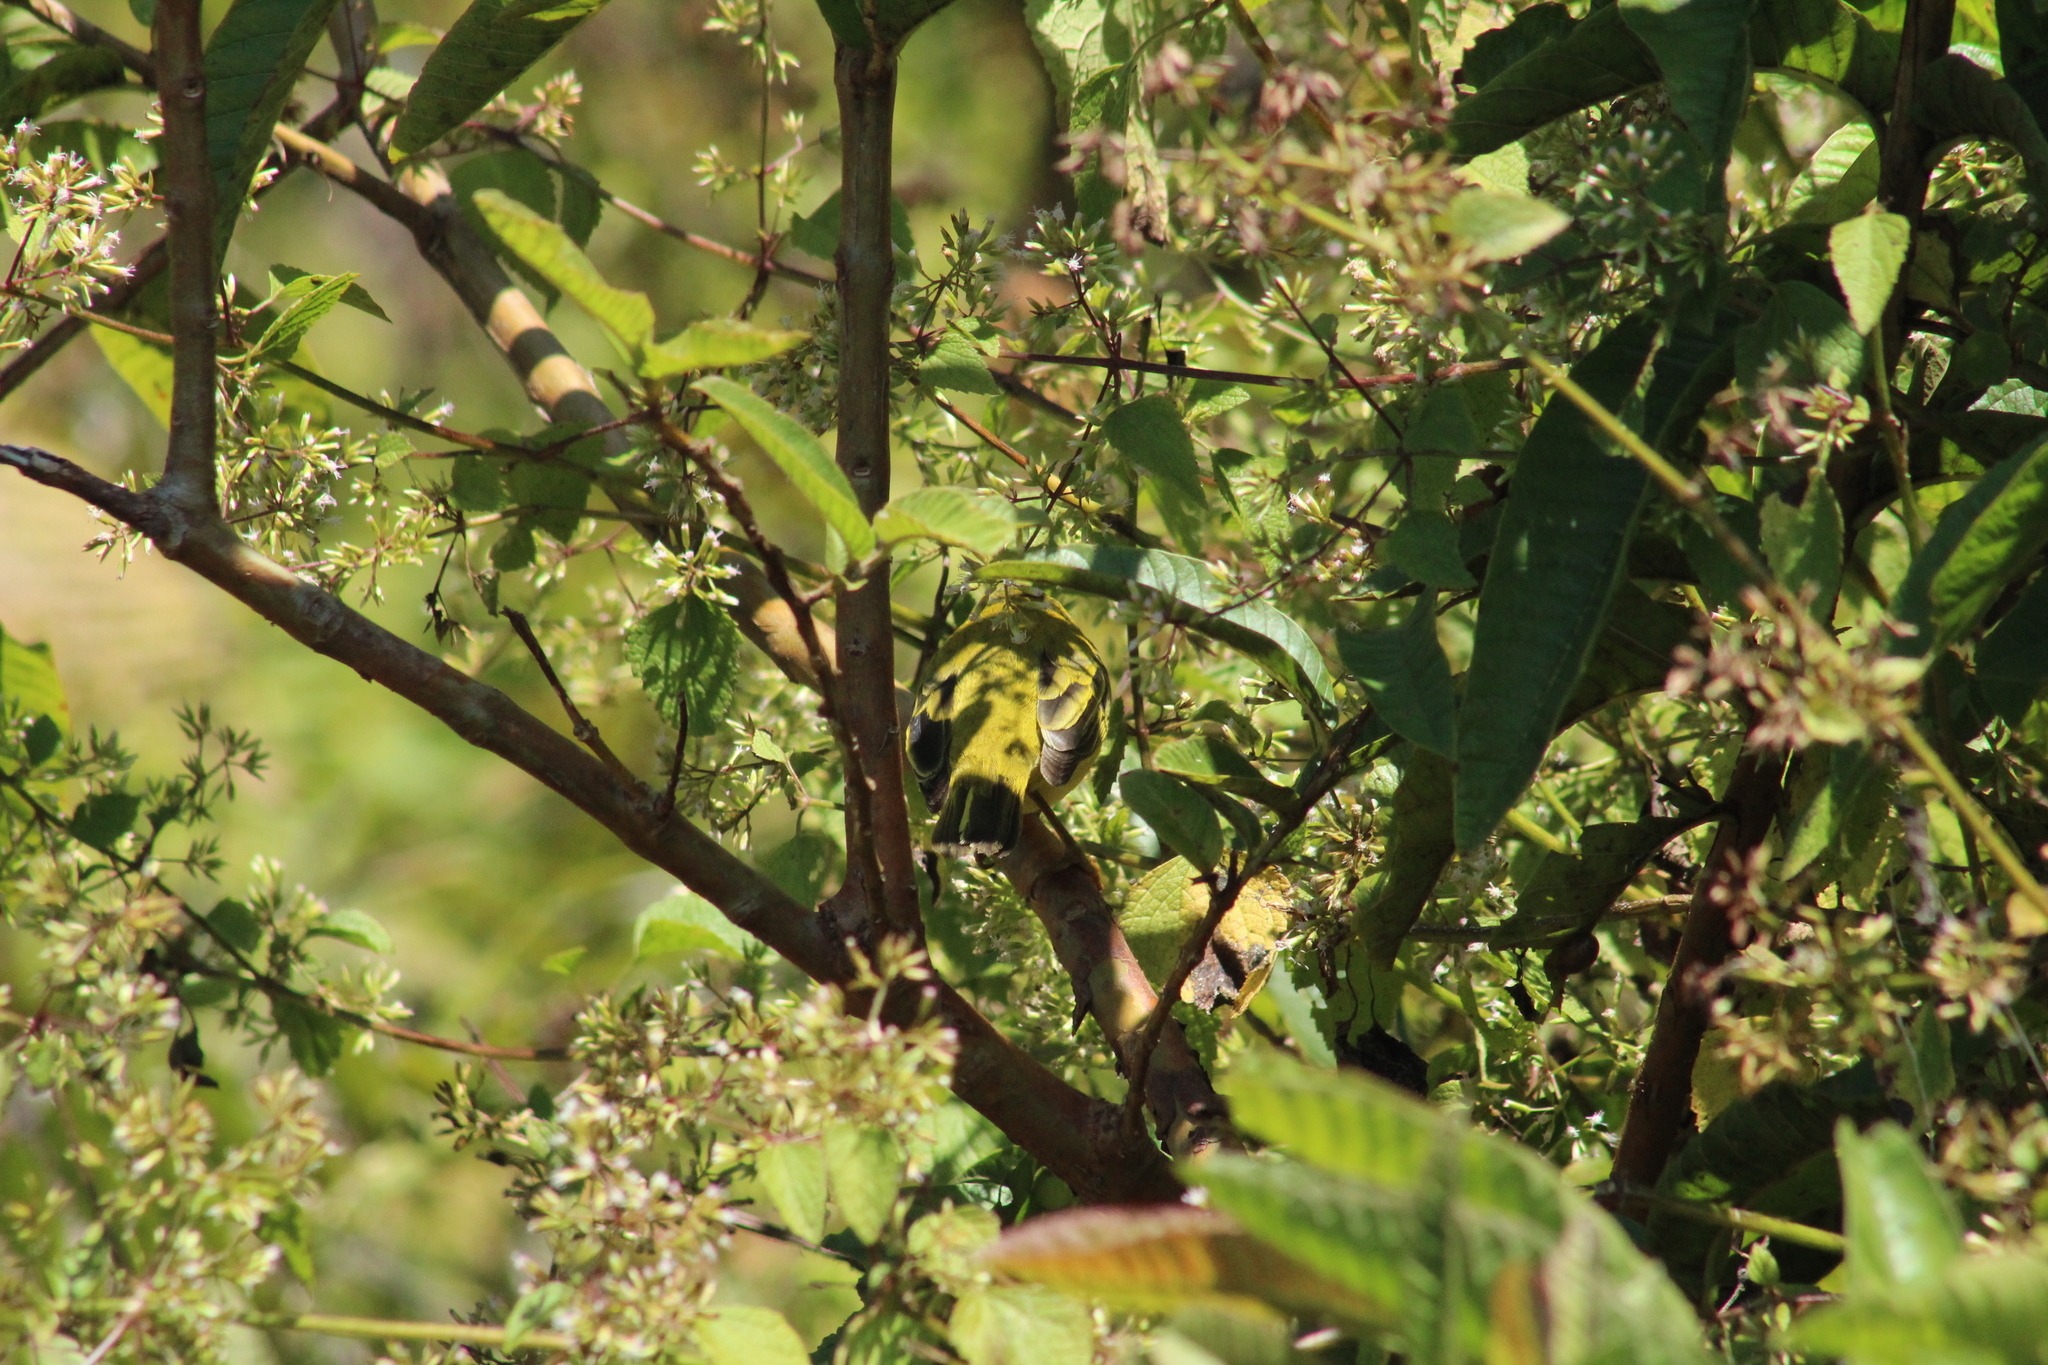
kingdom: Animalia
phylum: Chordata
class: Aves
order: Passeriformes
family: Parulidae
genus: Setophaga
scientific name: Setophaga petechia
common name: Yellow warbler
